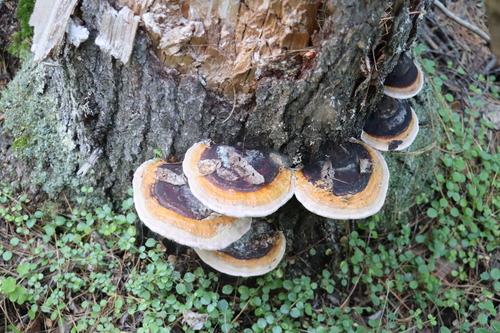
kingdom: Fungi
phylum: Basidiomycota
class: Agaricomycetes
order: Polyporales
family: Fomitopsidaceae
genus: Fomitopsis
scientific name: Fomitopsis pinicola
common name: Red-belted bracket
